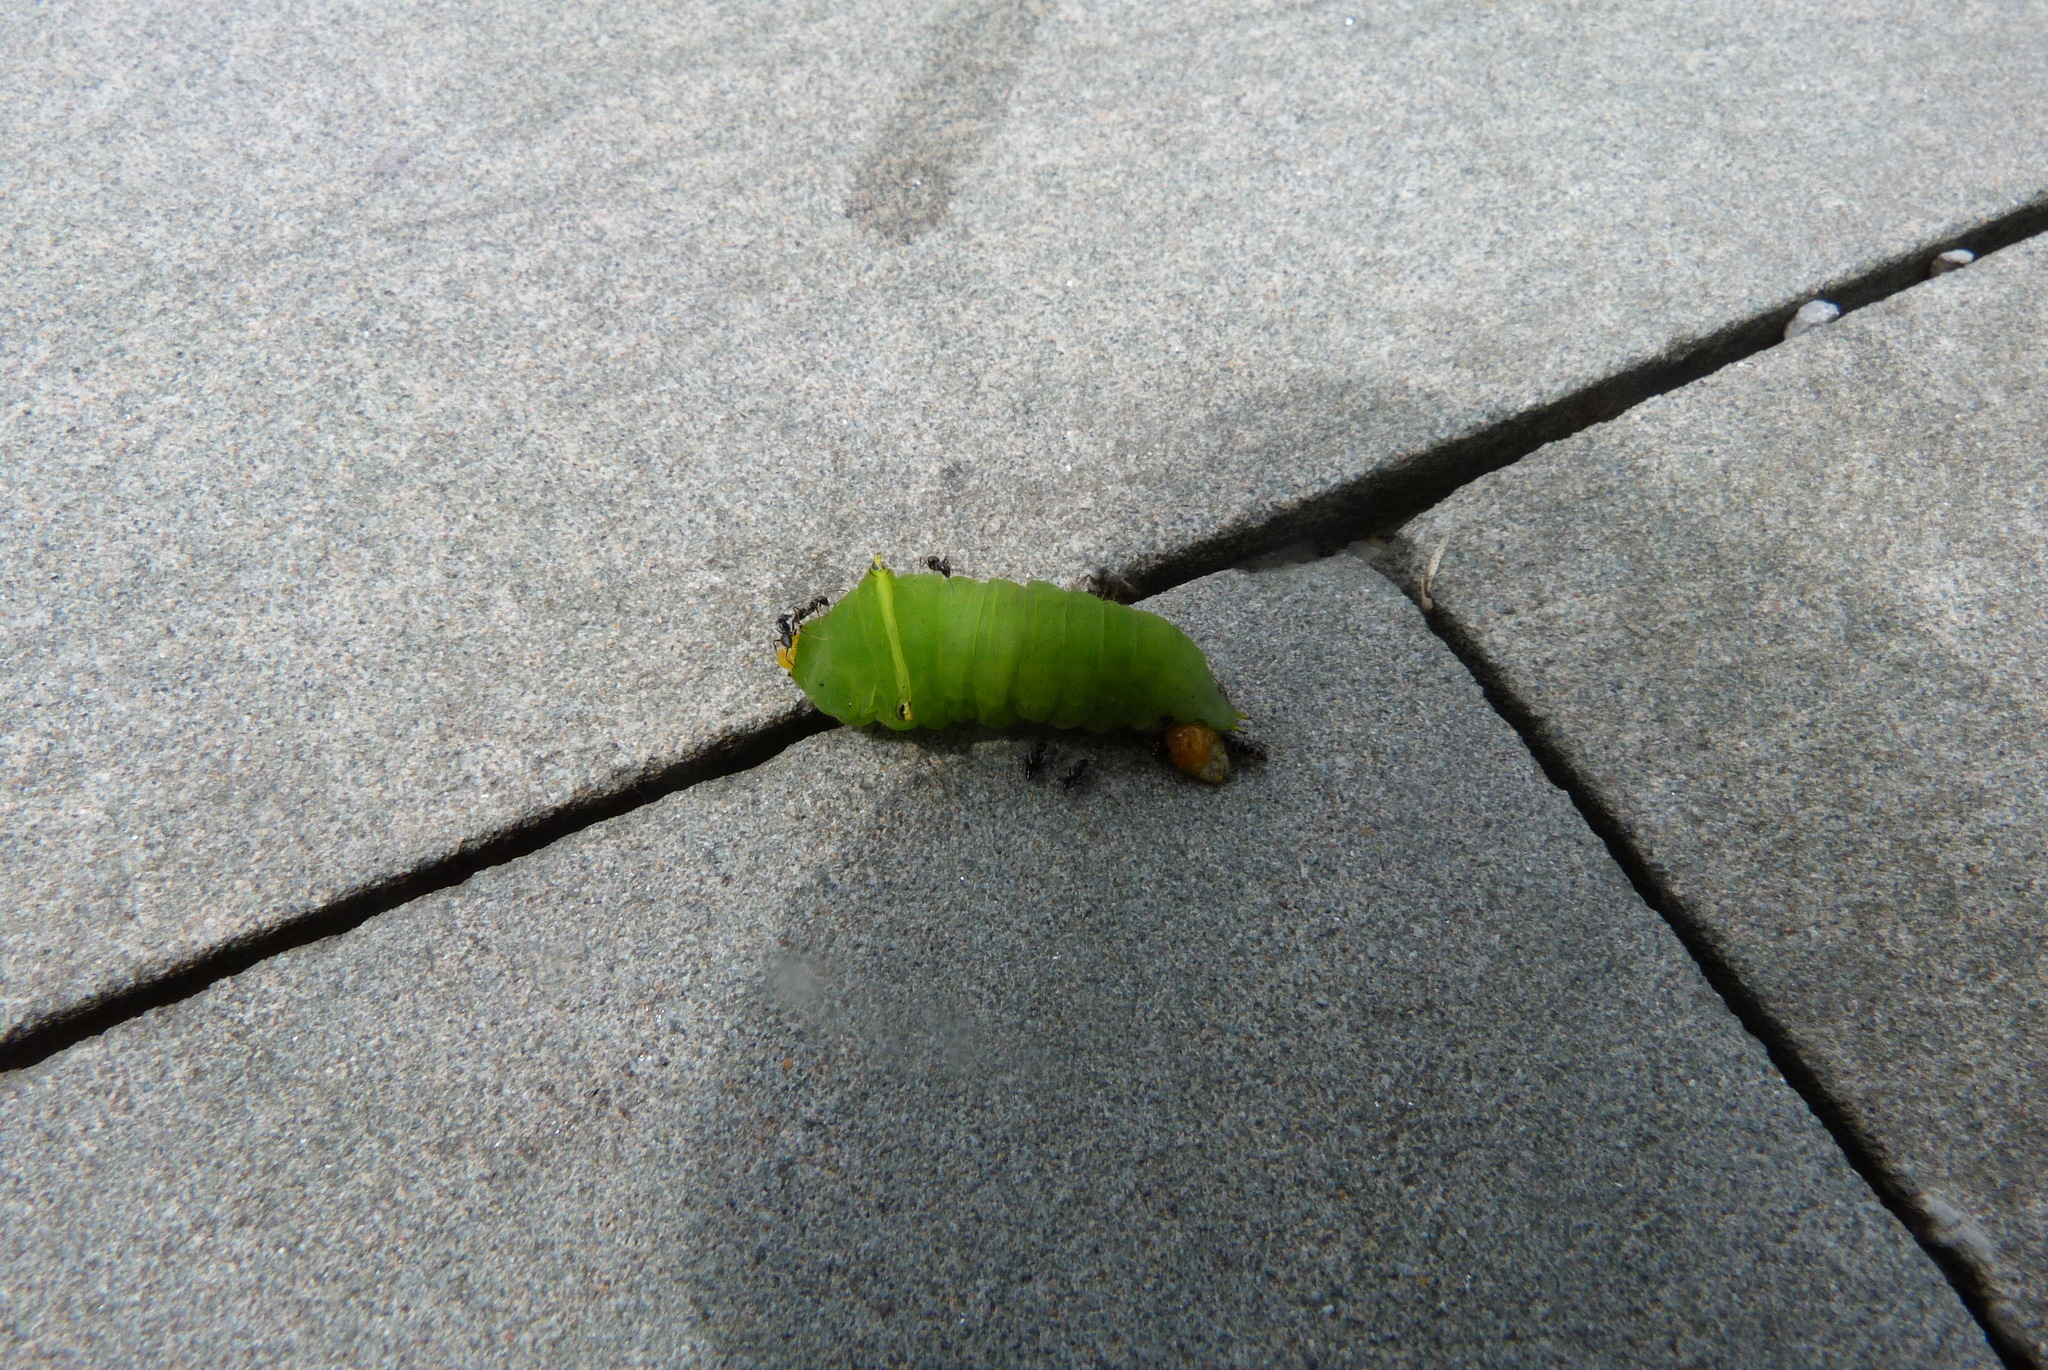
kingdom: Fungi
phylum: Ascomycota
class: Sordariomycetes
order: Microascales
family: Microascaceae
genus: Graphium
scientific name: Graphium sarpedon
